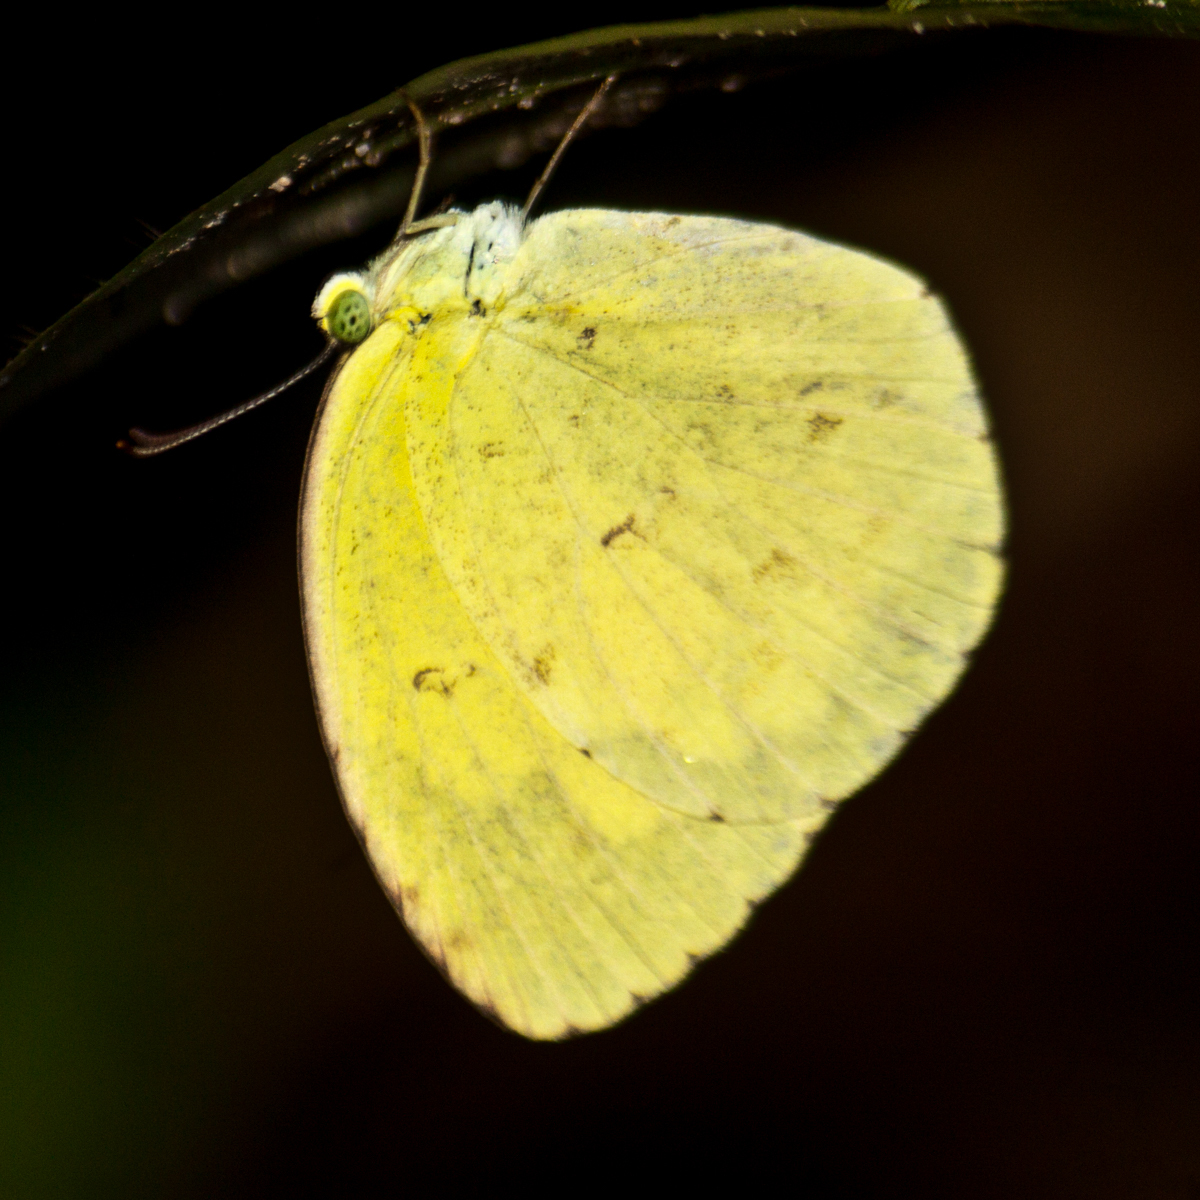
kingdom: Animalia
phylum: Arthropoda
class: Insecta
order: Lepidoptera
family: Pieridae
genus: Eurema
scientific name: Eurema hecabe
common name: Pale grass yellow
